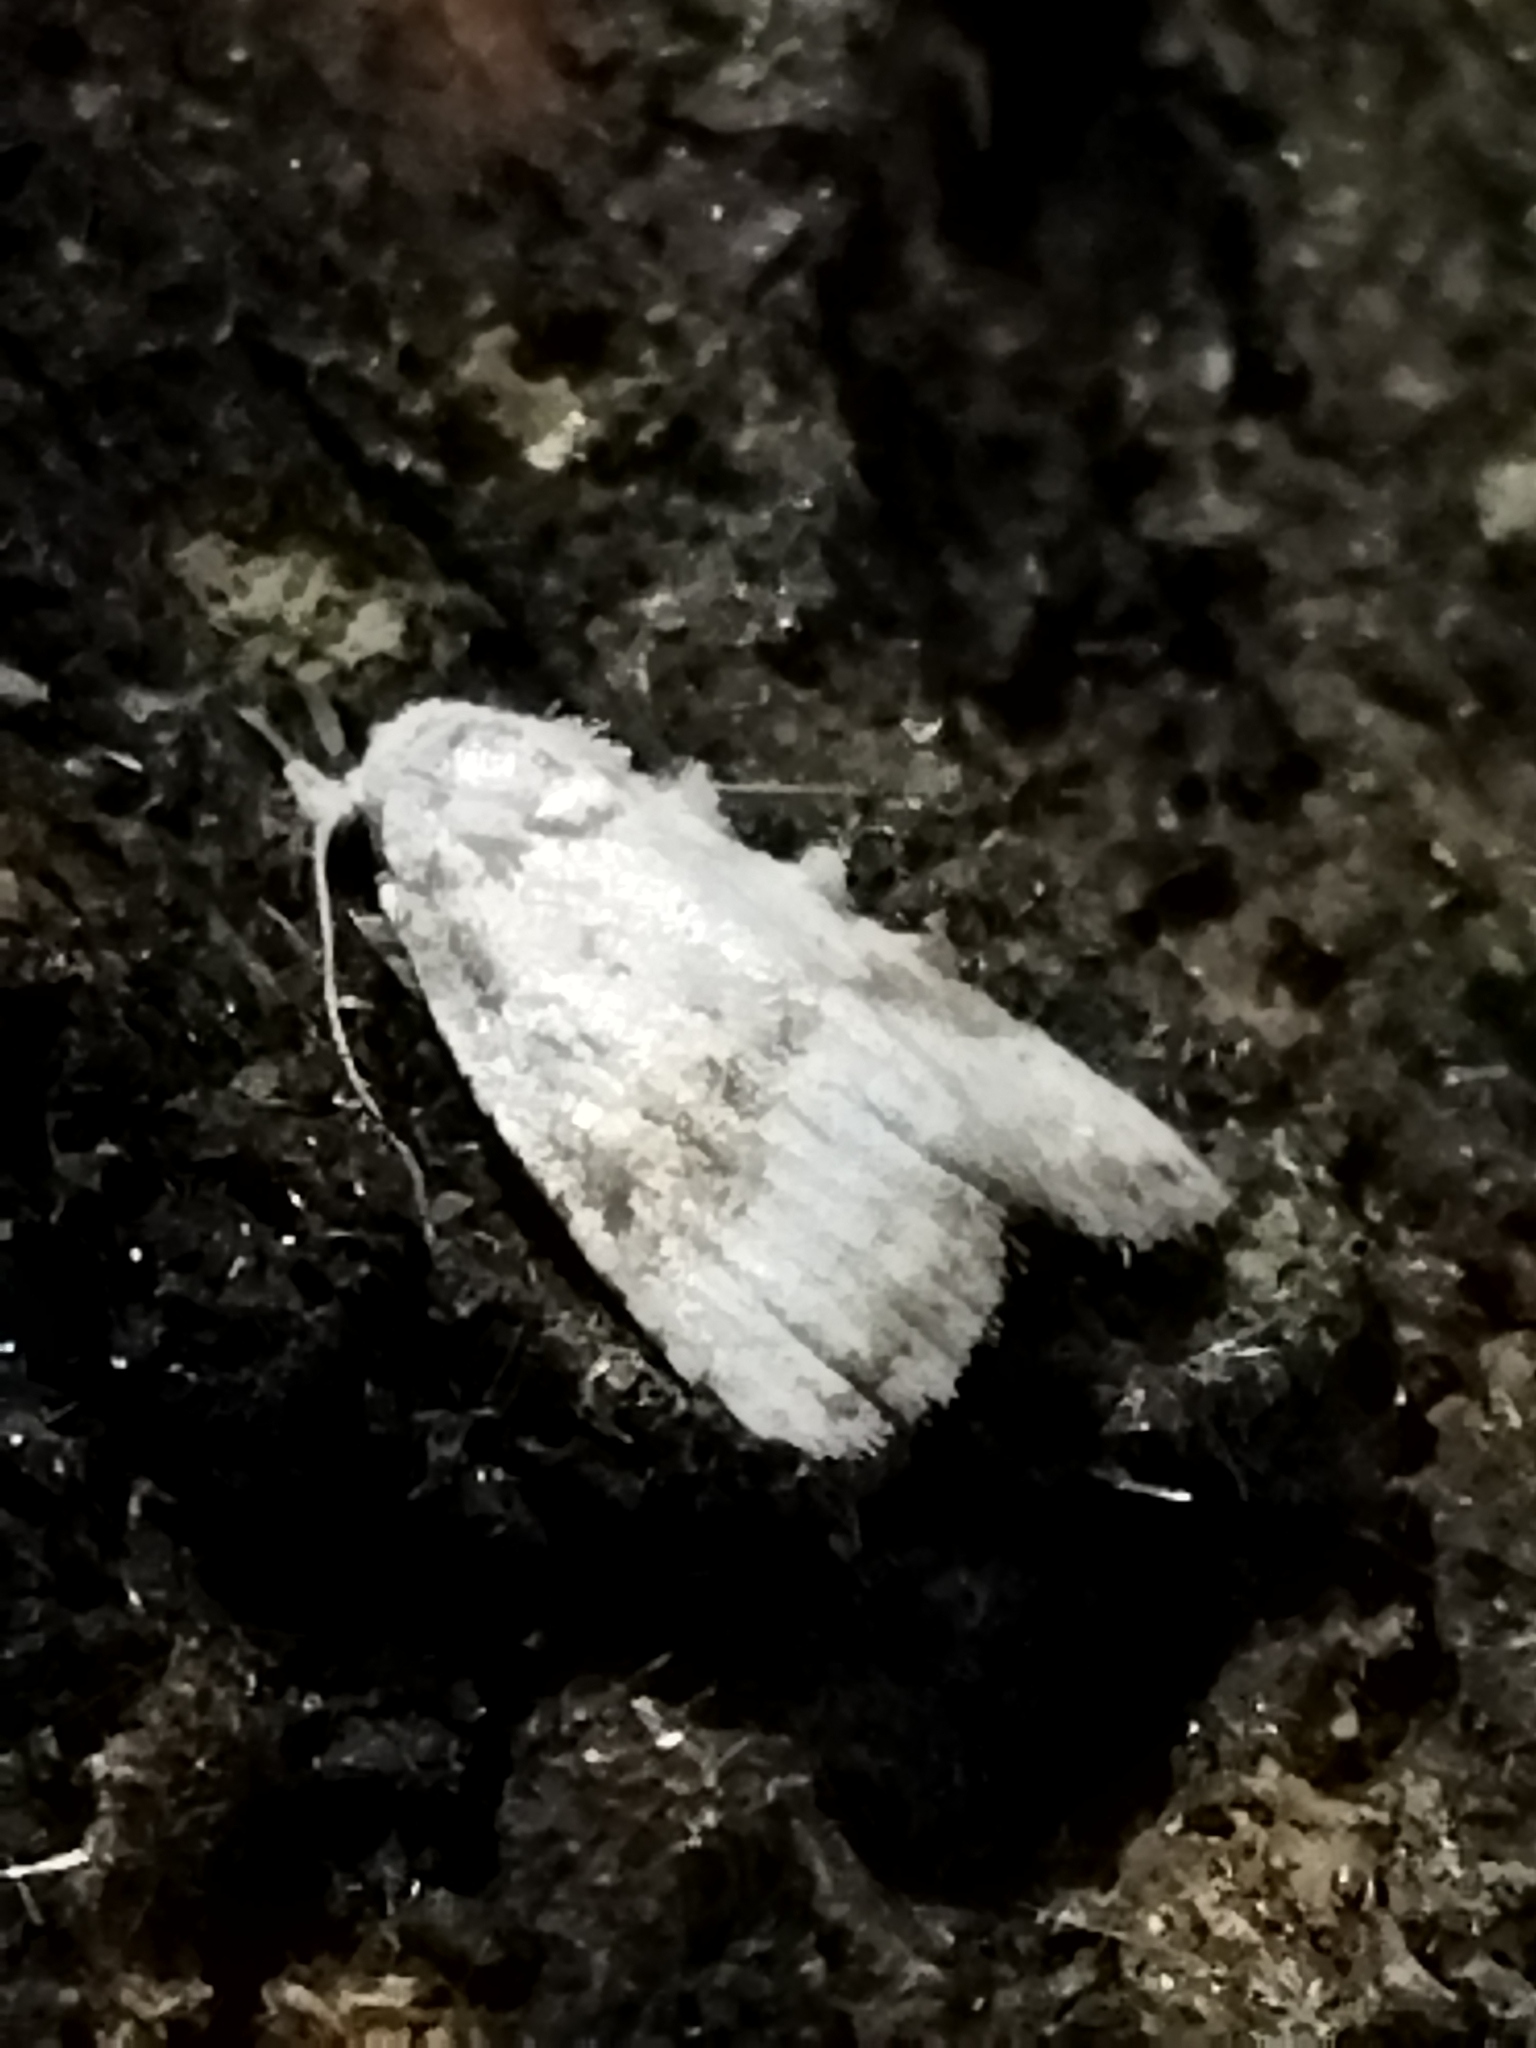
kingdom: Animalia
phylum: Arthropoda
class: Insecta
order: Lepidoptera
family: Nolidae
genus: Nola
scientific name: Nola aerugula
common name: Scarce black arches
